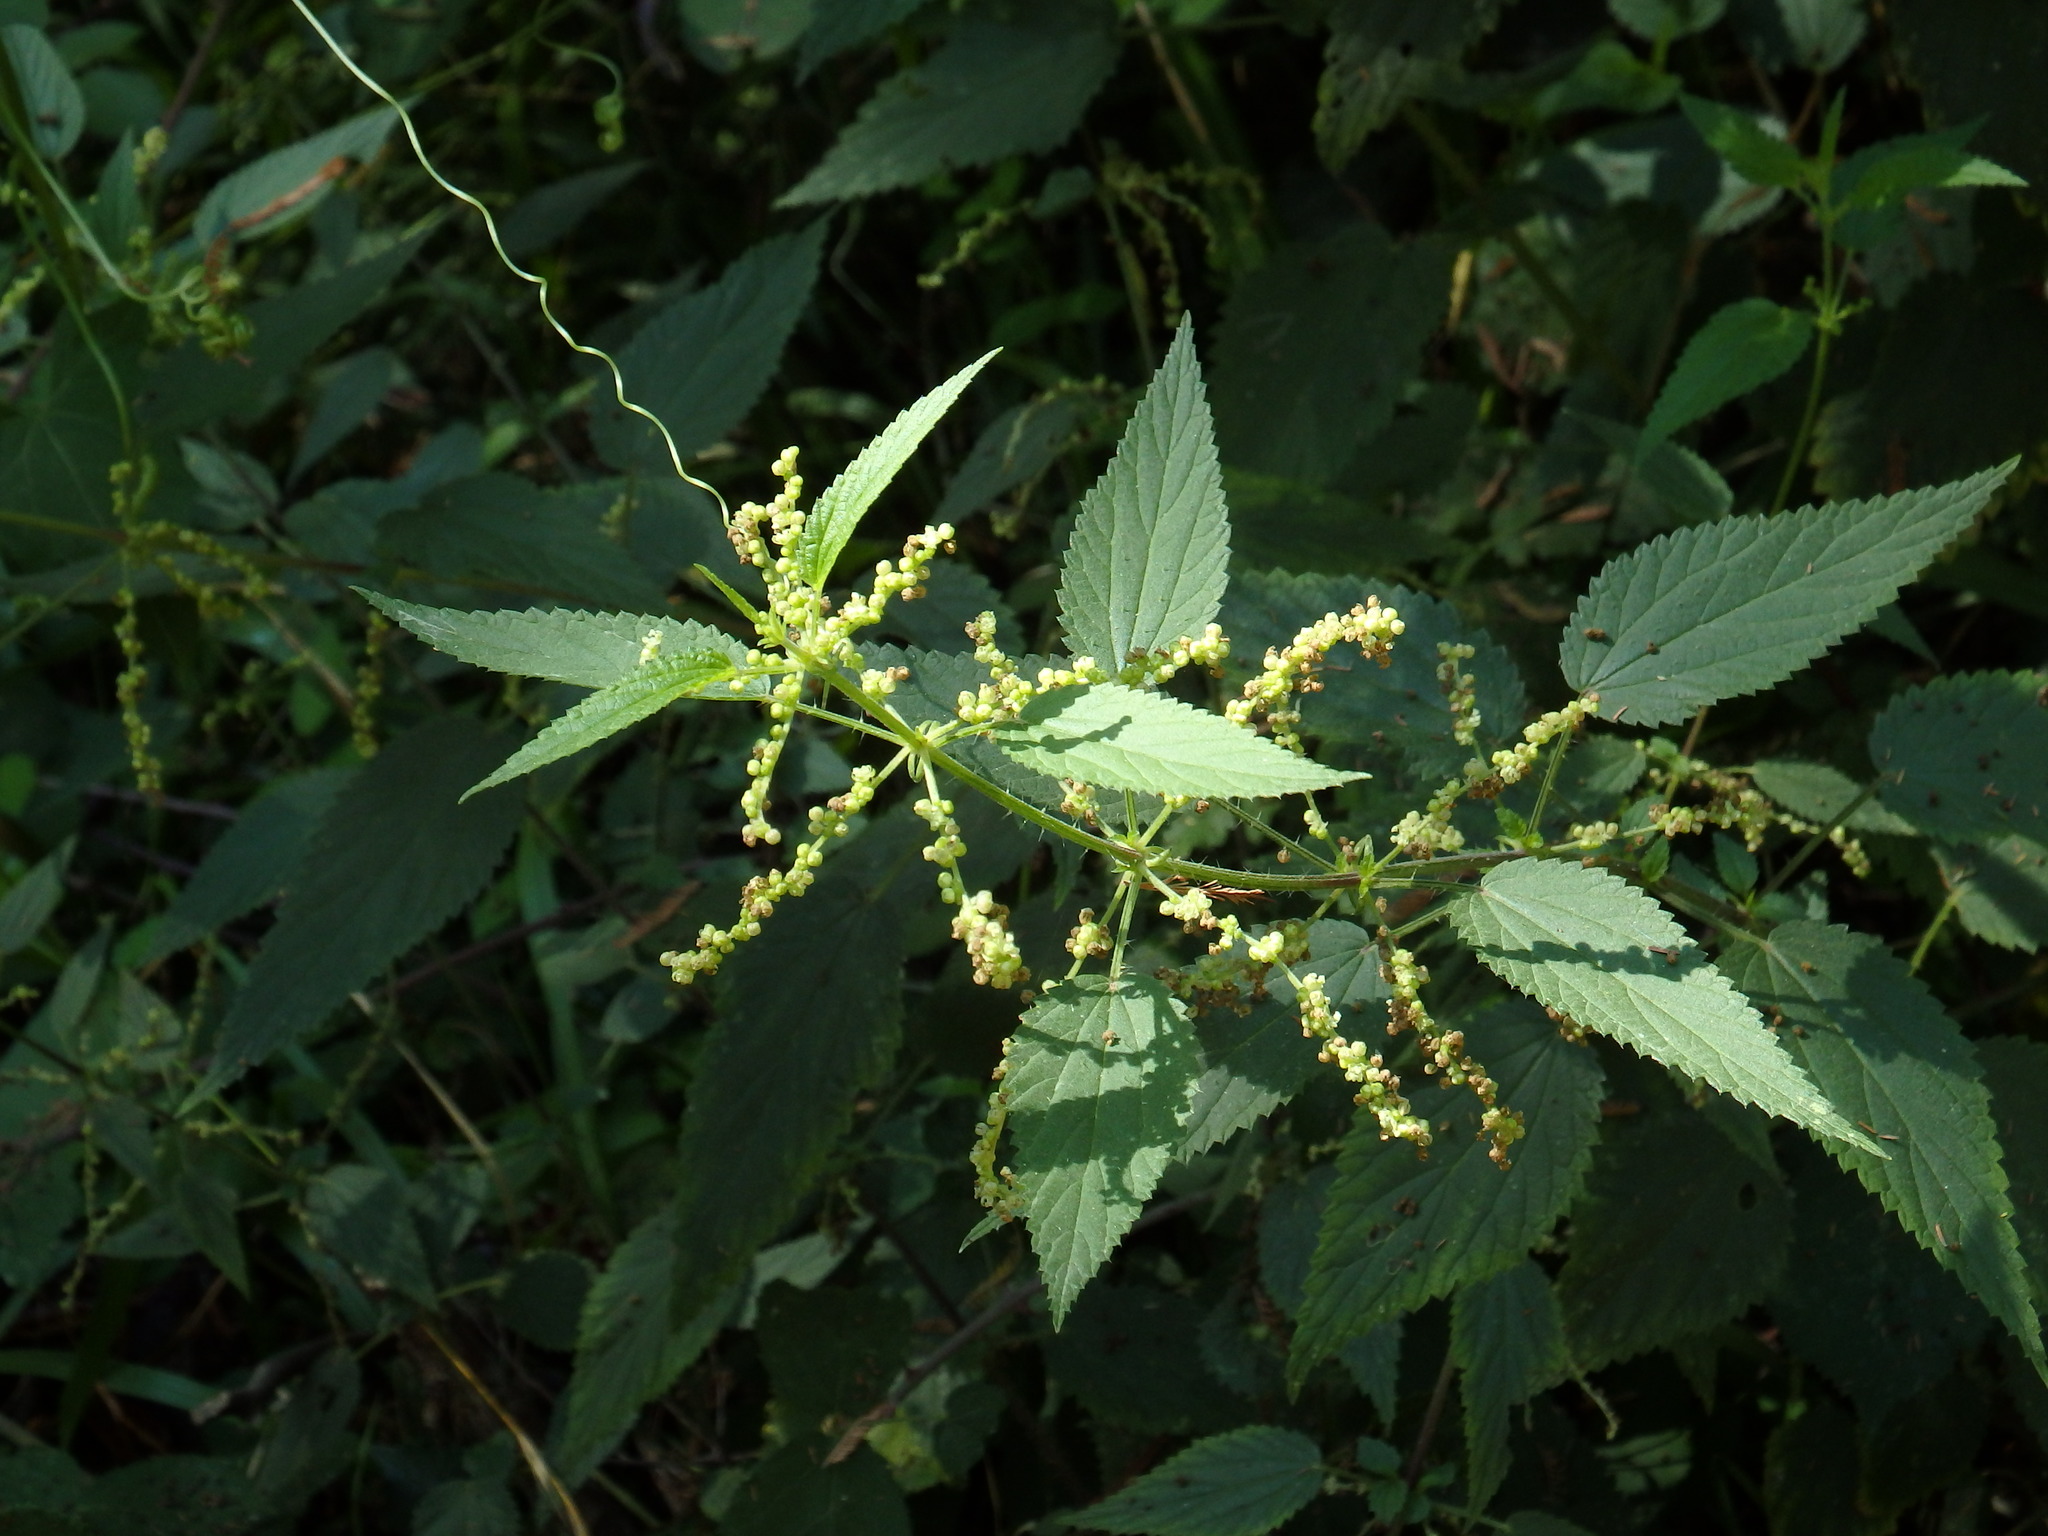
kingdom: Plantae
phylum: Tracheophyta
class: Magnoliopsida
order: Rosales
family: Urticaceae
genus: Urtica
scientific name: Urtica dioica
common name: Common nettle
